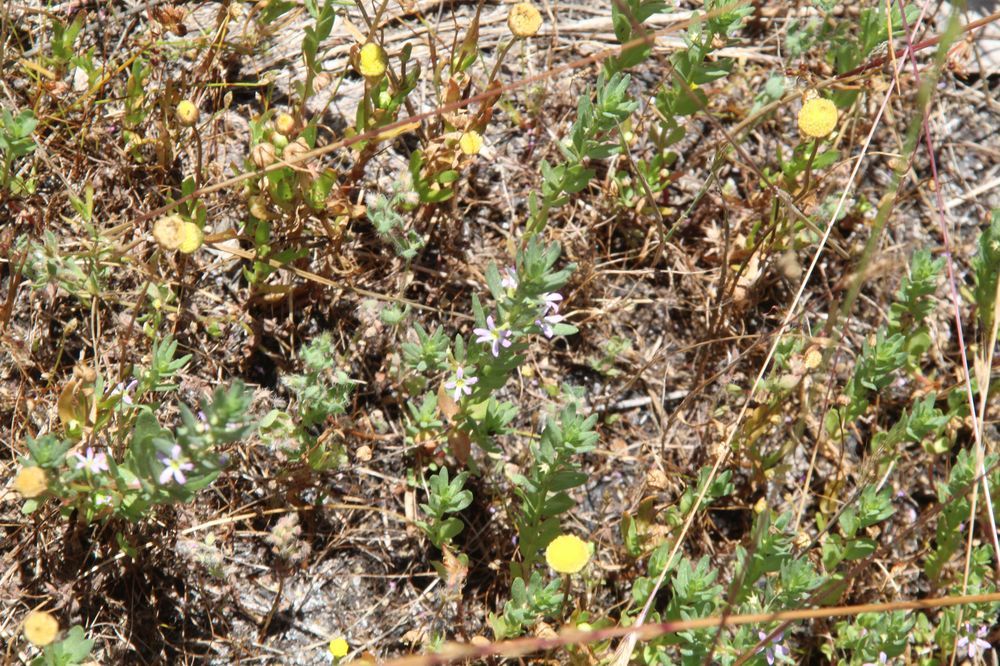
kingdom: Plantae
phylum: Tracheophyta
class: Magnoliopsida
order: Myrtales
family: Lythraceae
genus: Lythrum
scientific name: Lythrum hyssopifolia
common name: Grass-poly
